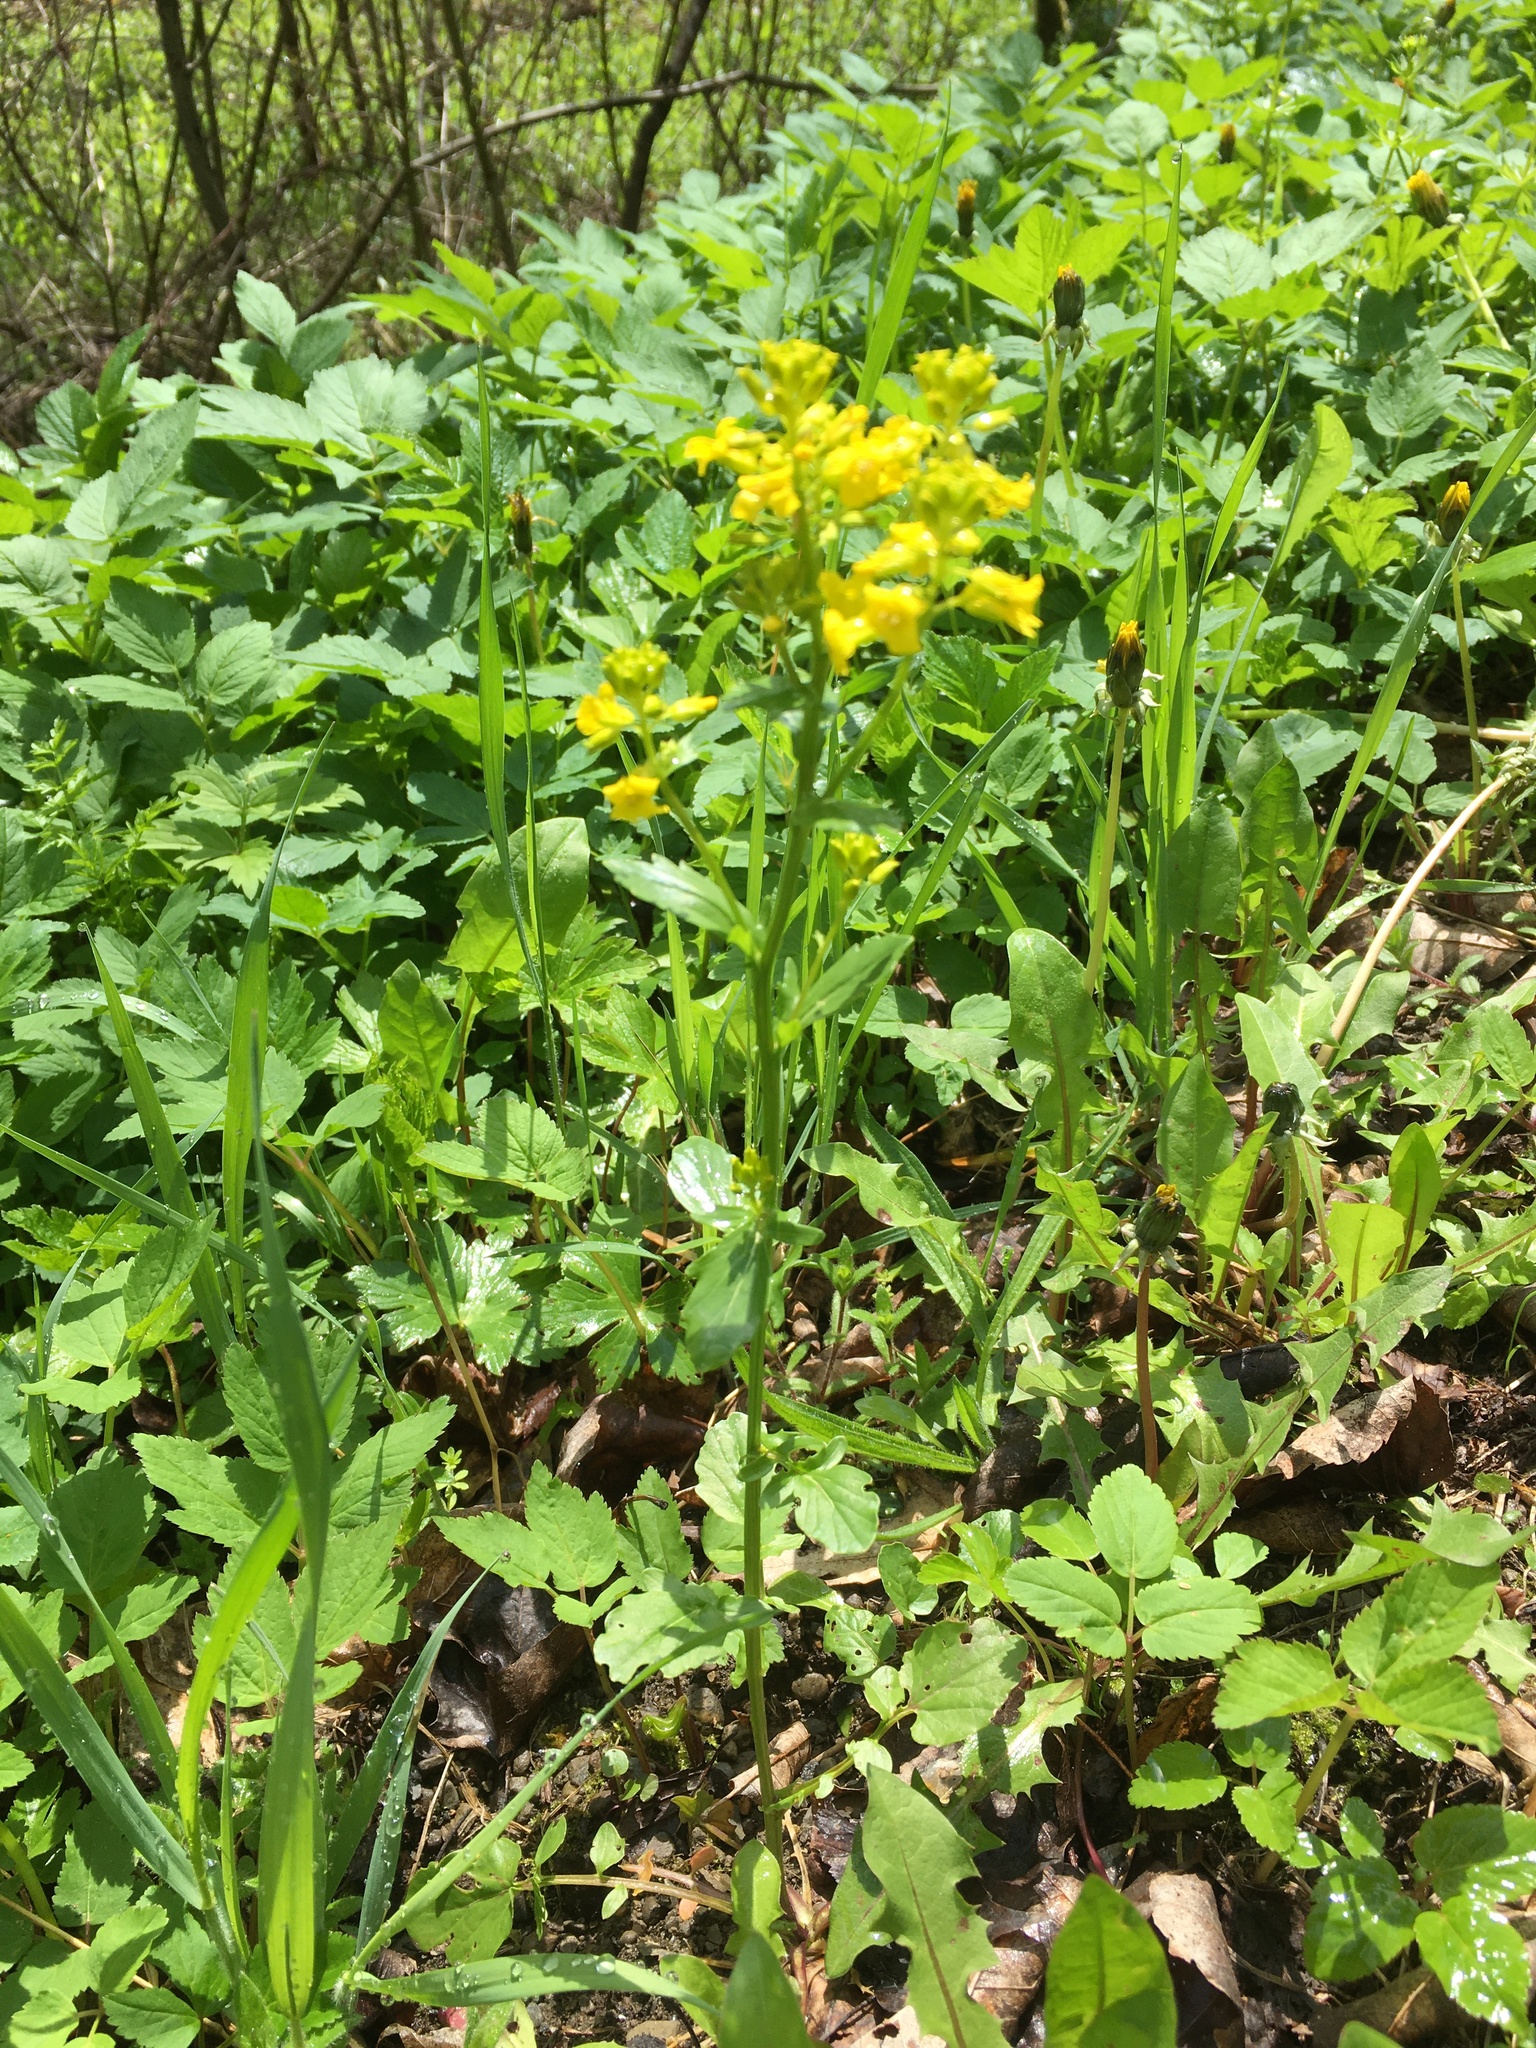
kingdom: Plantae
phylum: Tracheophyta
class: Magnoliopsida
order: Brassicales
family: Brassicaceae
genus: Barbarea
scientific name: Barbarea vulgaris
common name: Cressy-greens
